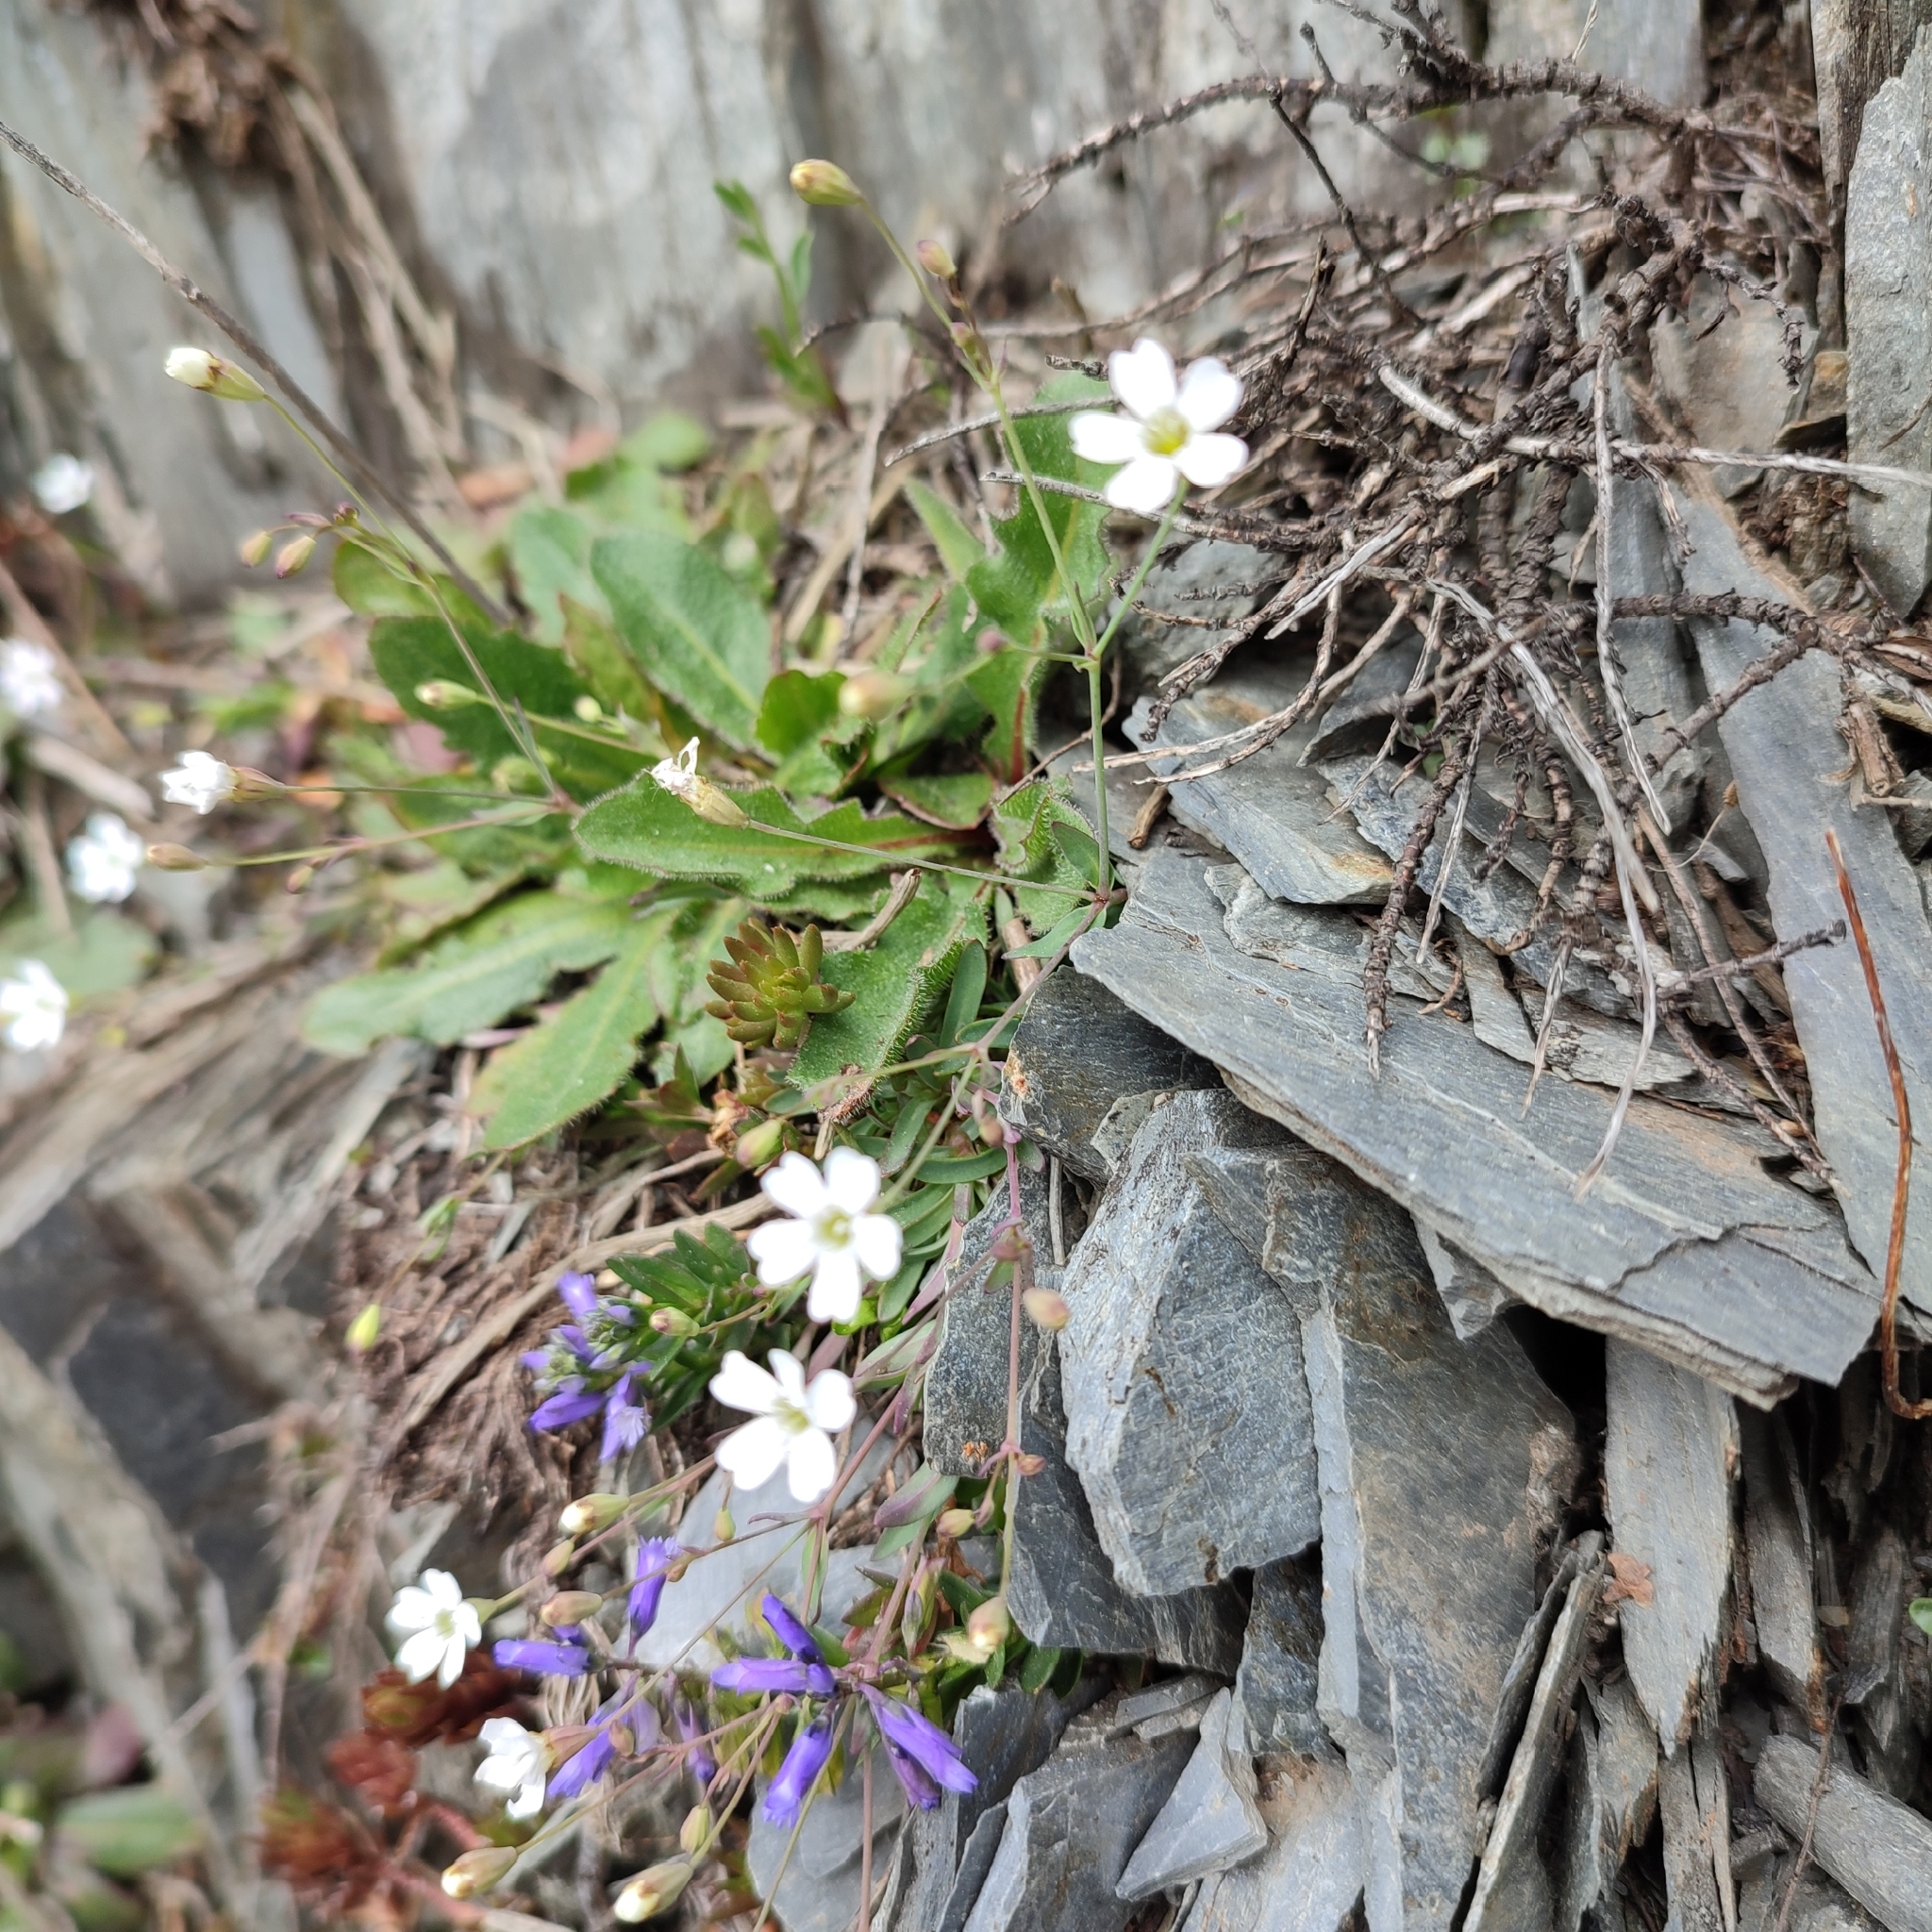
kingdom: Plantae
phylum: Tracheophyta
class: Magnoliopsida
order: Caryophyllales
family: Caryophyllaceae
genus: Atocion
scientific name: Atocion rupestre
